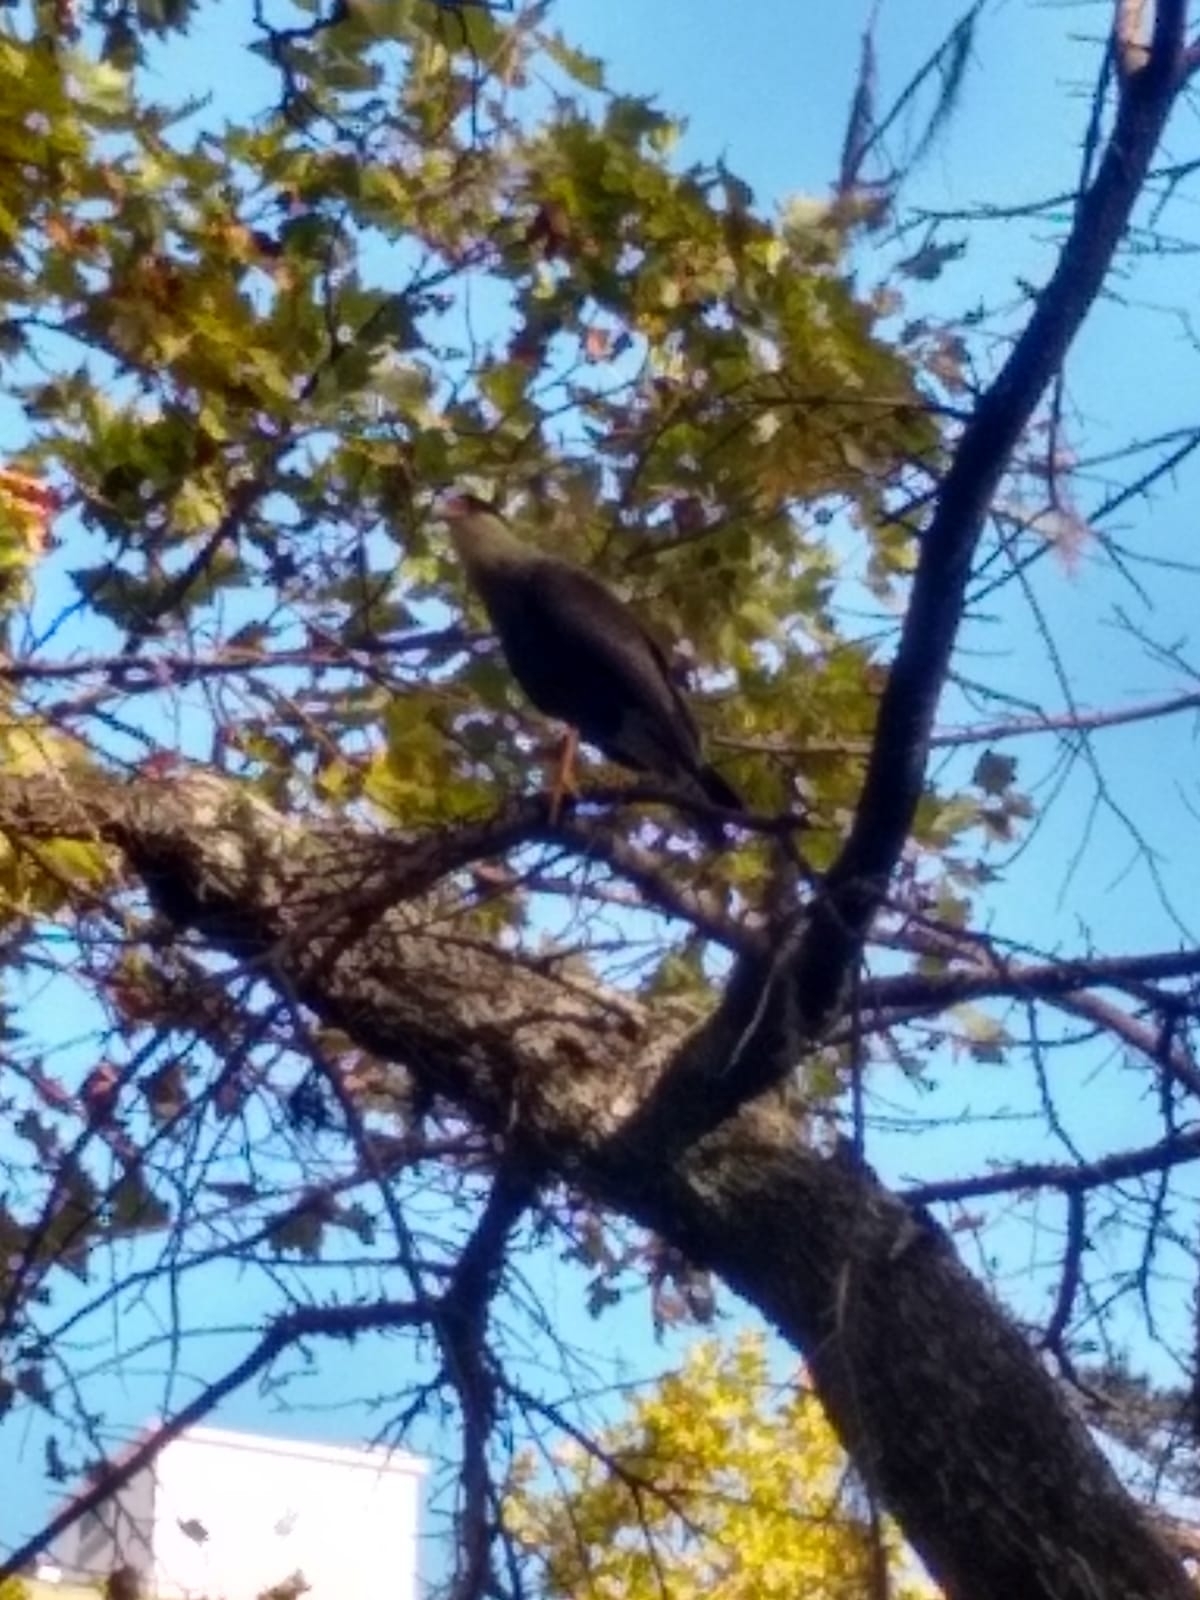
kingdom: Animalia
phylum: Chordata
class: Aves
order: Falconiformes
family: Falconidae
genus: Caracara
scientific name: Caracara plancus
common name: Southern caracara
